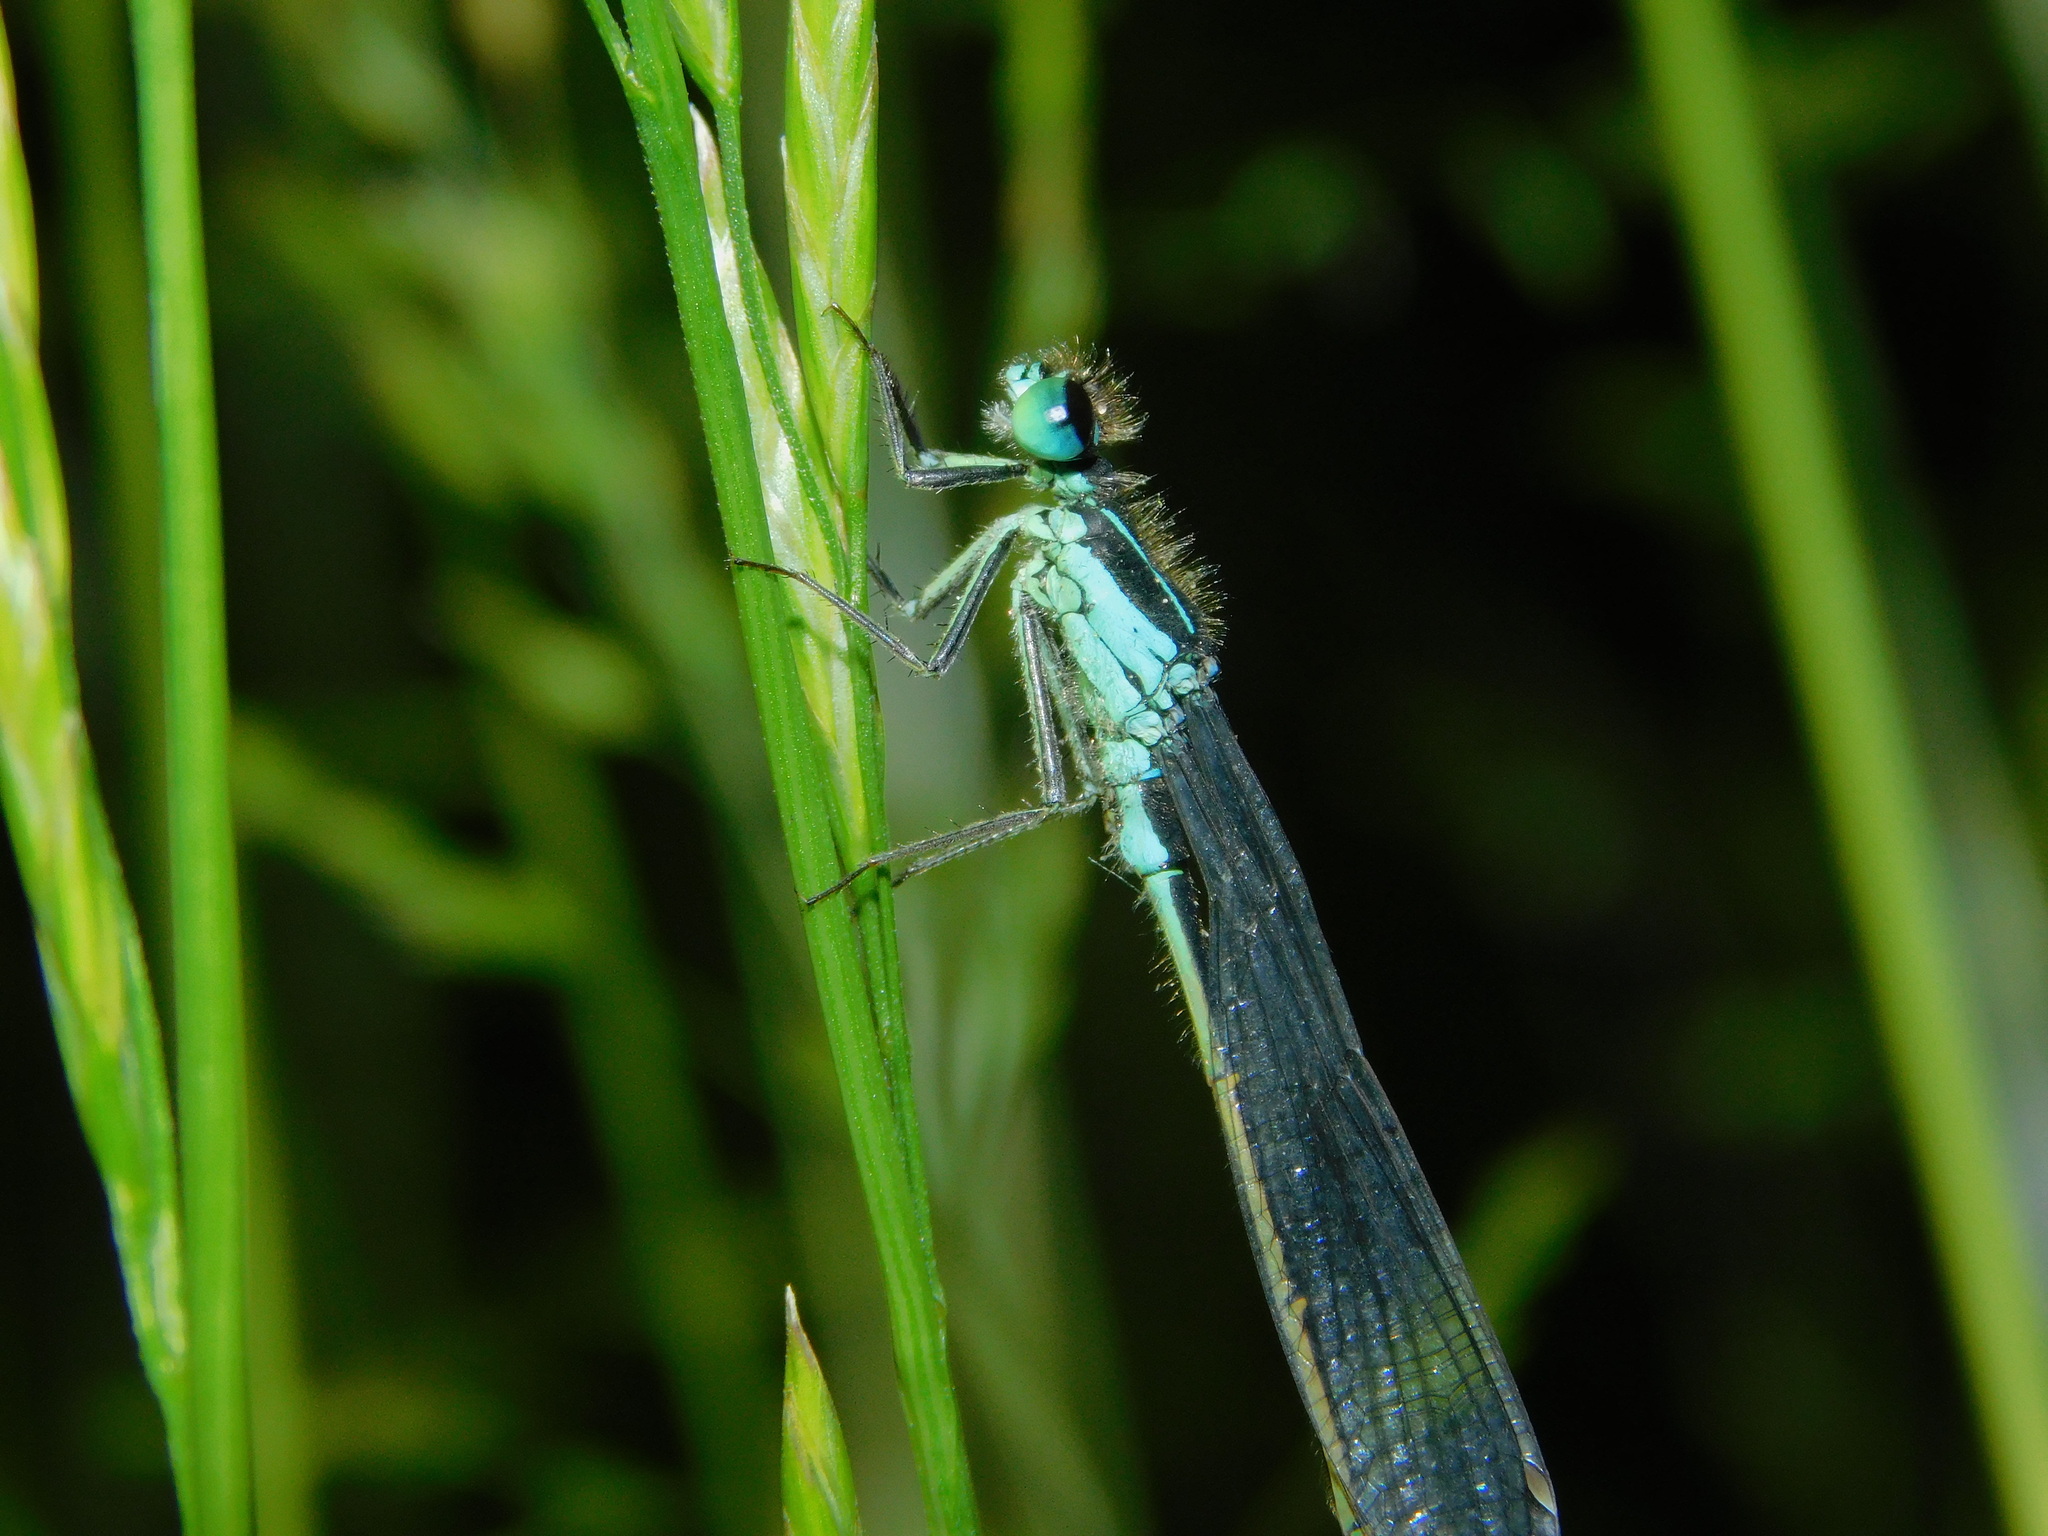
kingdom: Animalia
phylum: Arthropoda
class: Insecta
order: Odonata
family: Coenagrionidae
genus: Ischnura
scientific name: Ischnura elegans
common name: Blue-tailed damselfly
